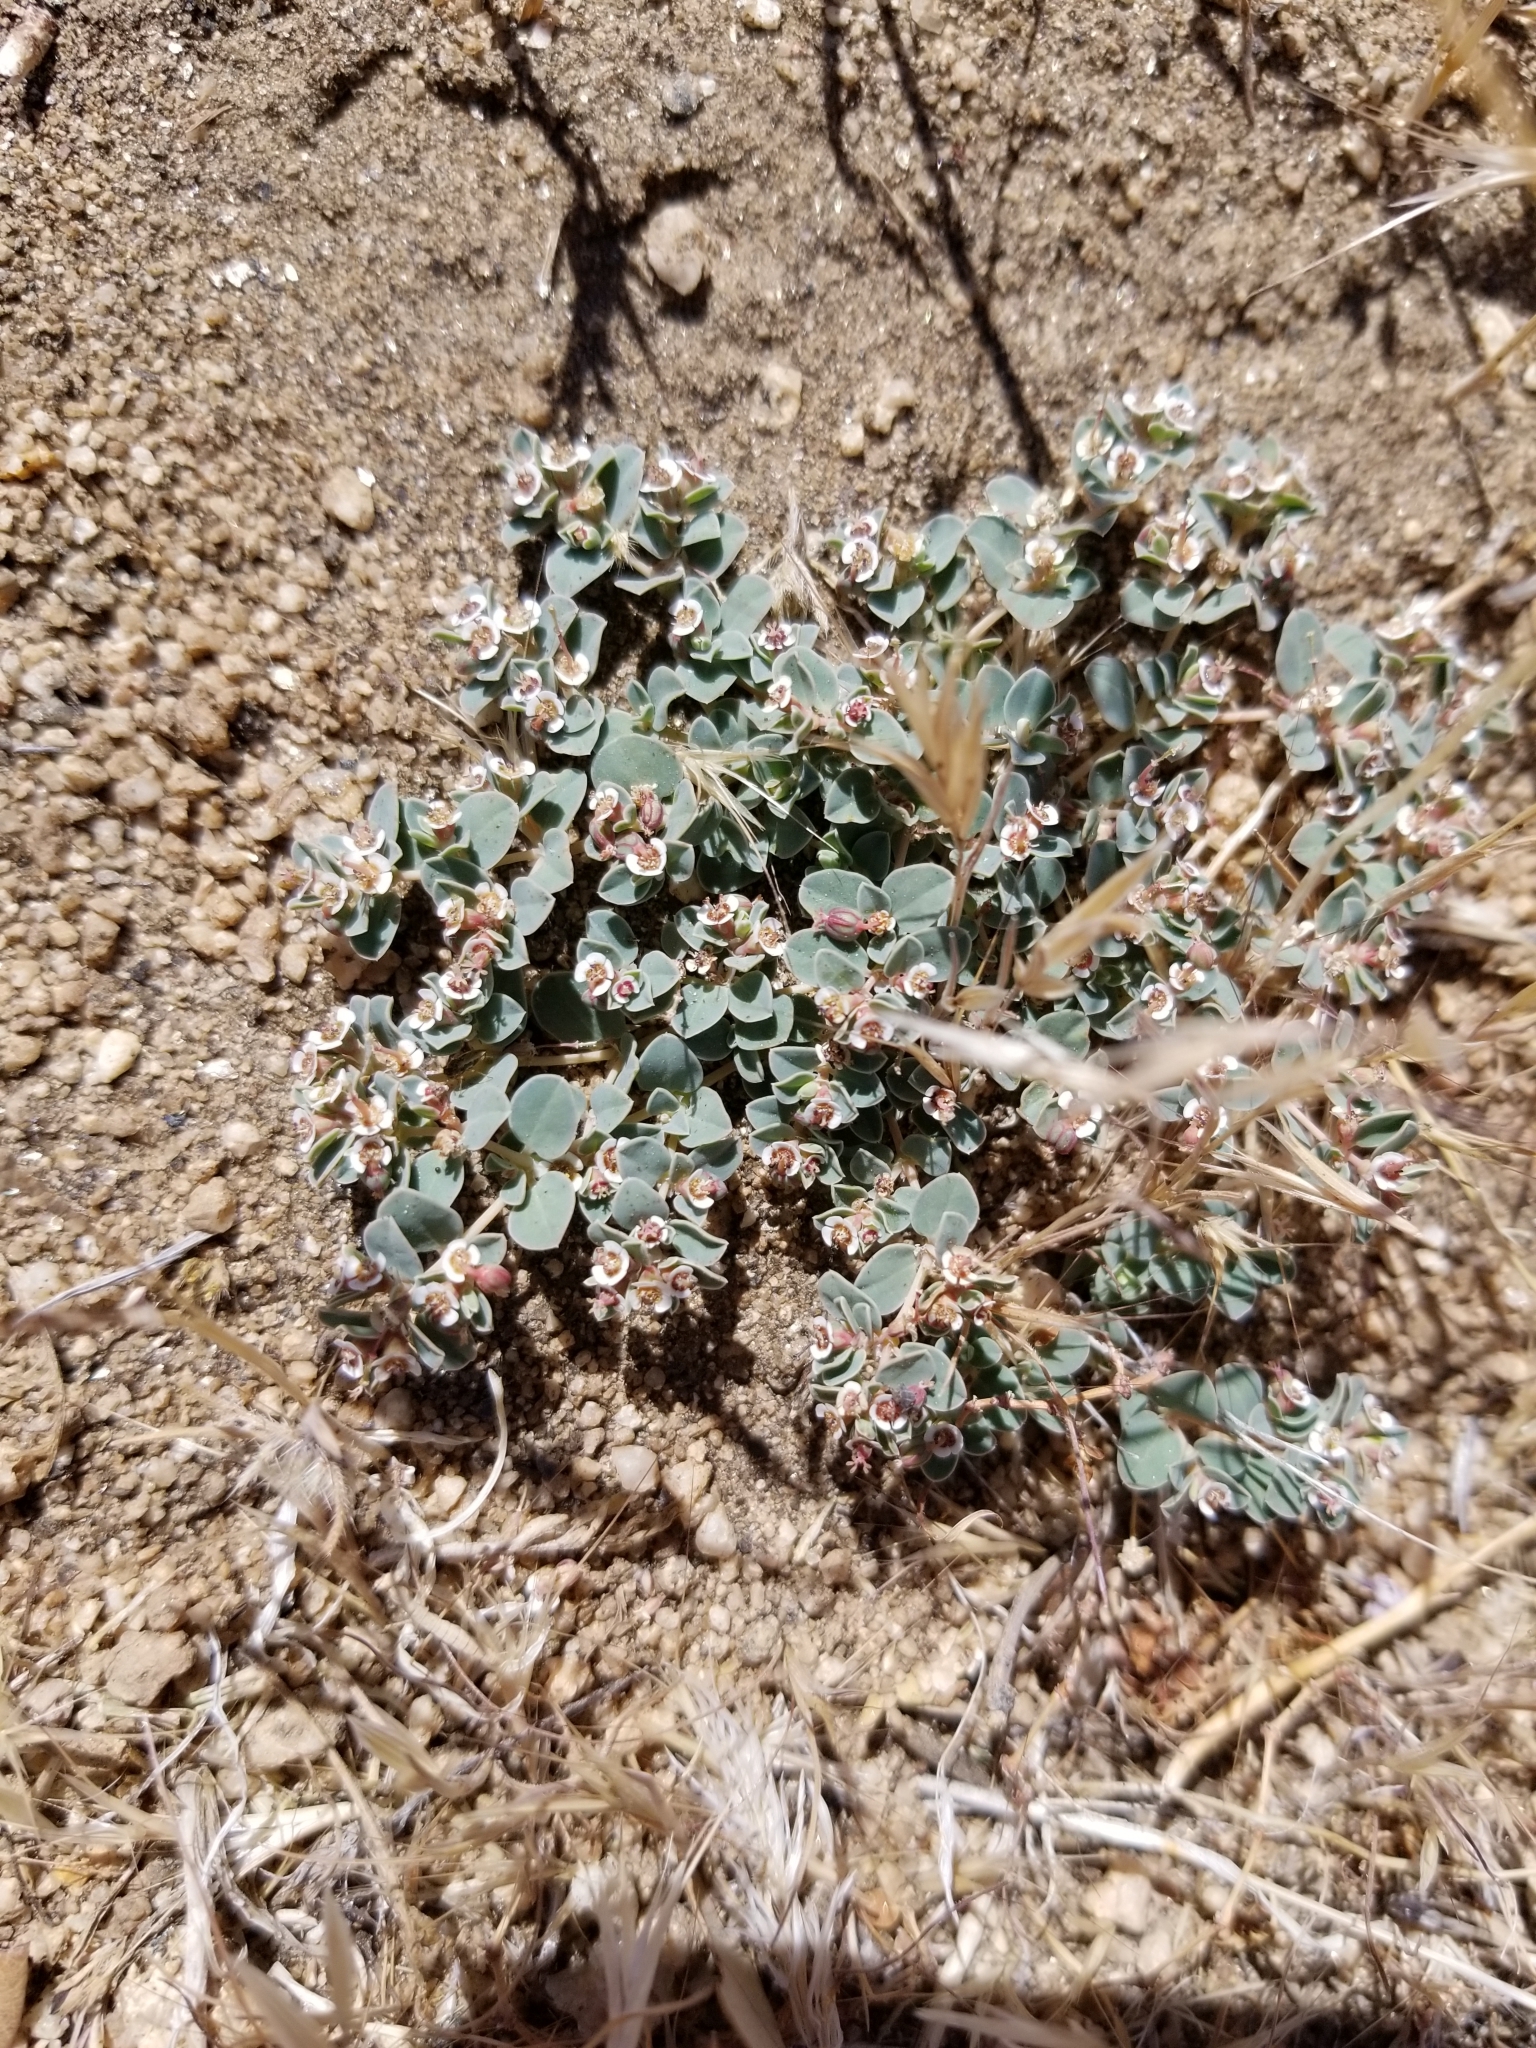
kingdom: Plantae
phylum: Tracheophyta
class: Magnoliopsida
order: Malpighiales
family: Euphorbiaceae
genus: Euphorbia
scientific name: Euphorbia albomarginata
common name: Whitemargin sandmat
